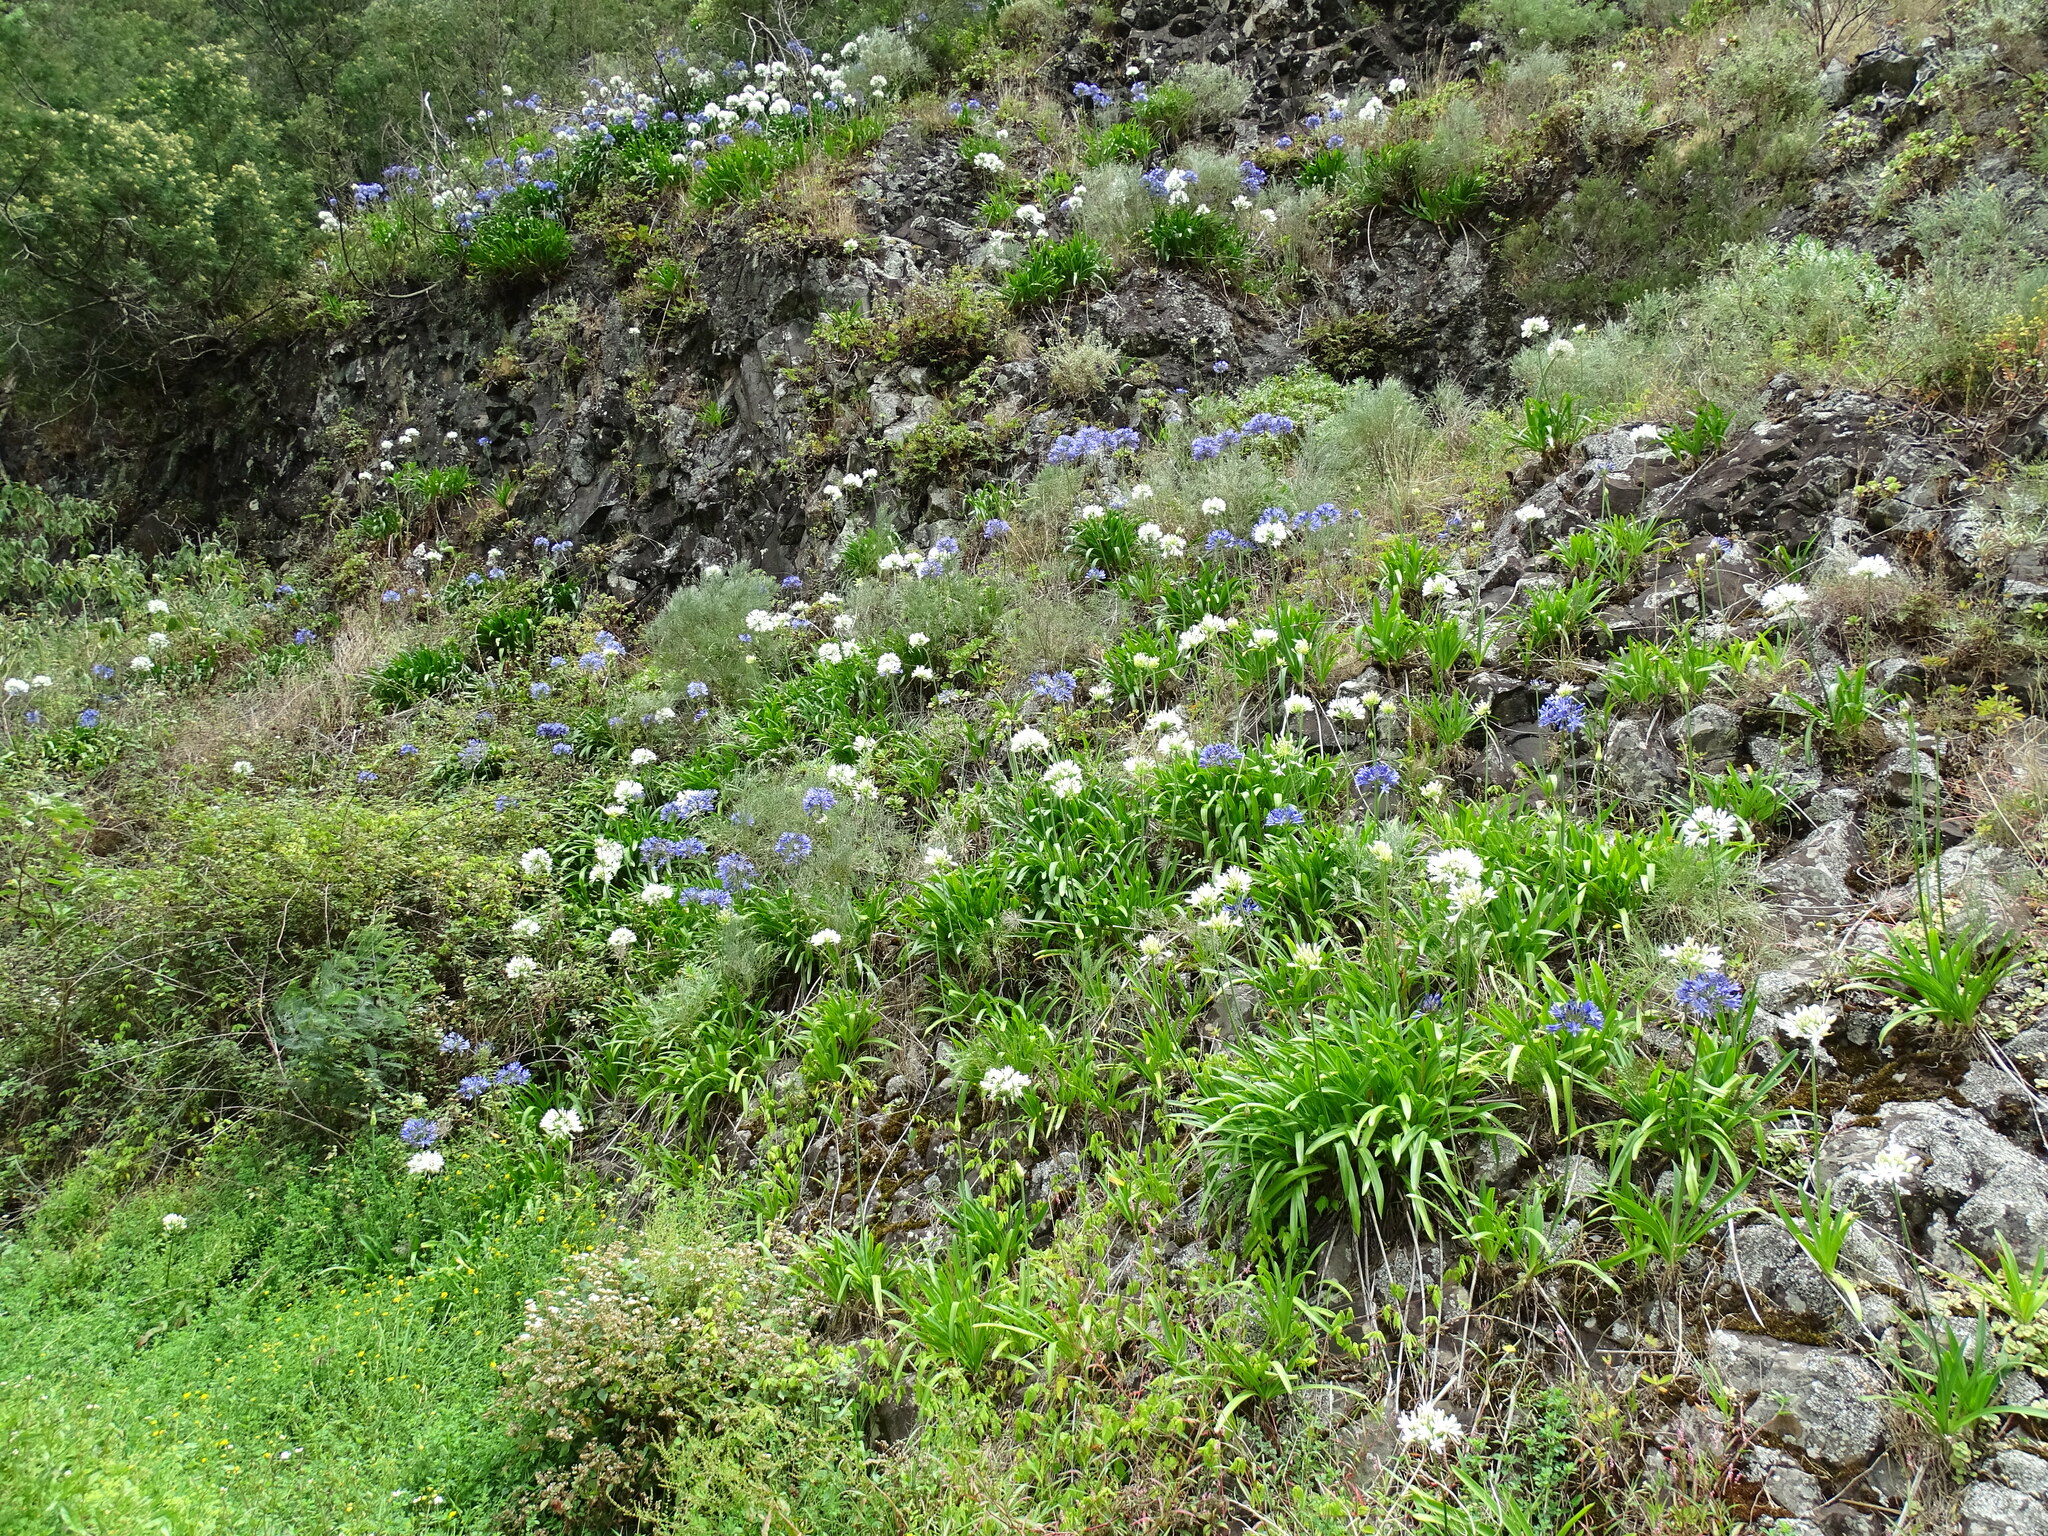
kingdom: Plantae
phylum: Tracheophyta
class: Liliopsida
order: Asparagales
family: Amaryllidaceae
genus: Agapanthus
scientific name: Agapanthus praecox
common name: African-lily
